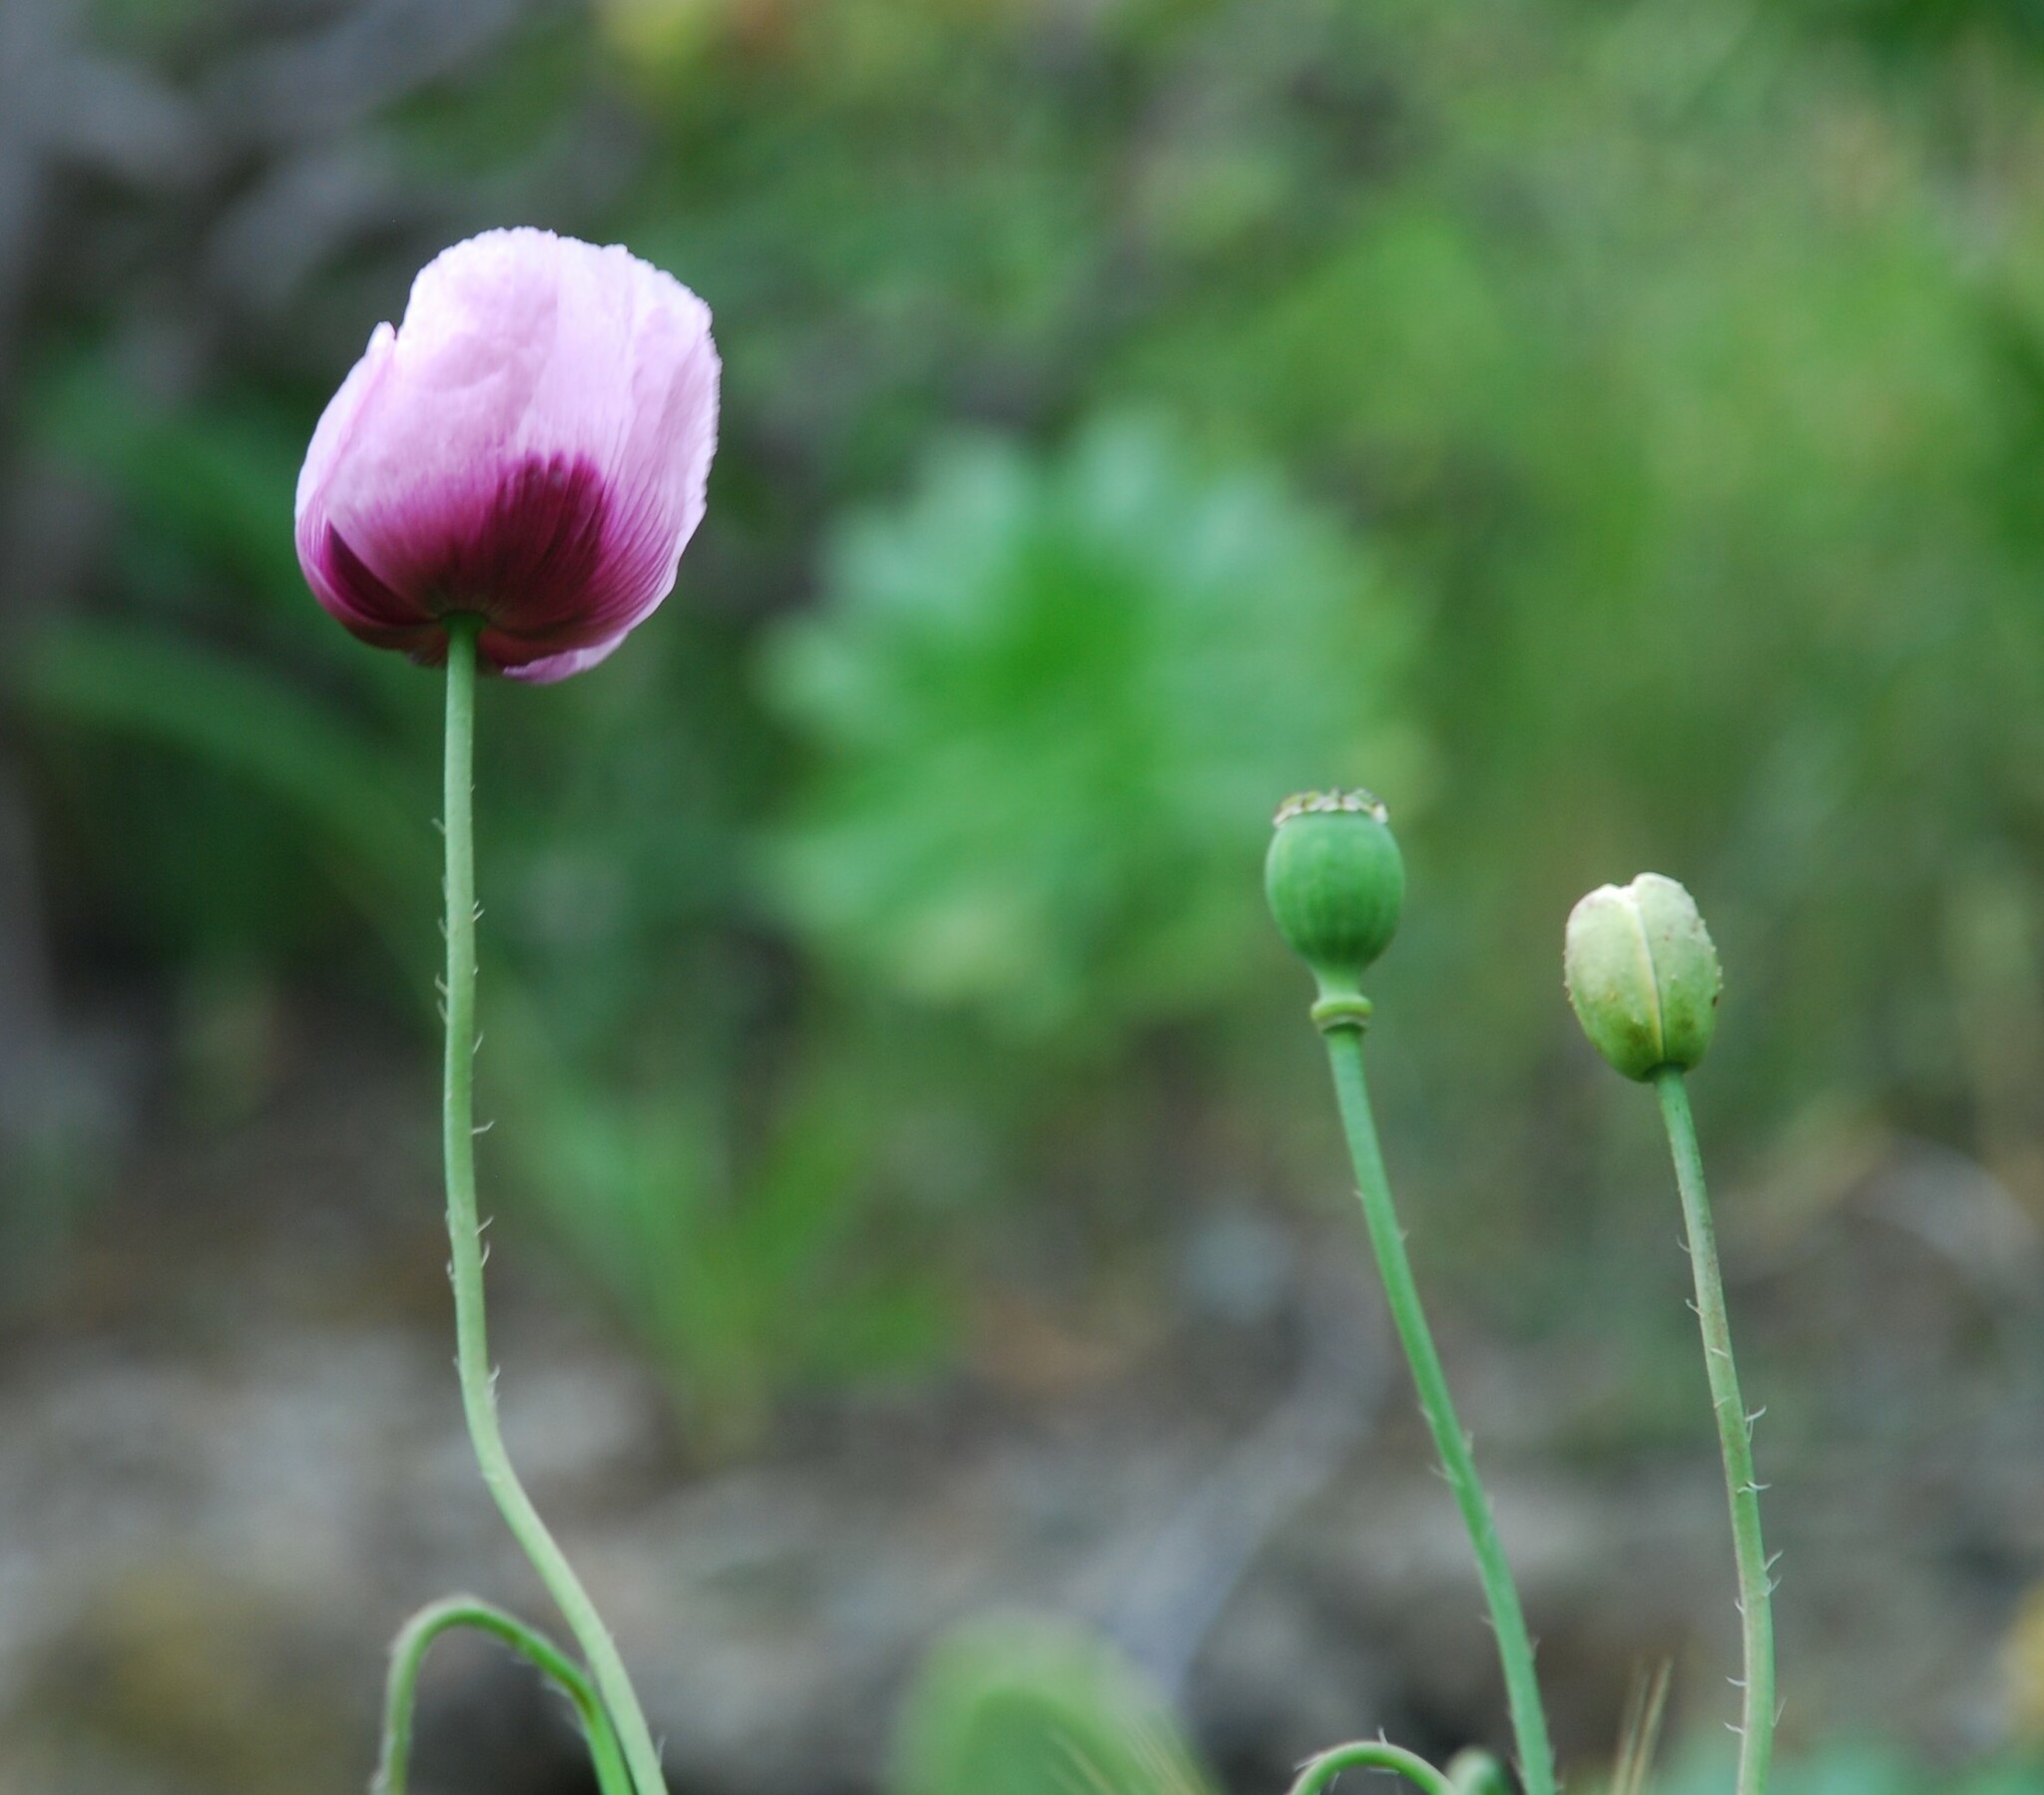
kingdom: Plantae
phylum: Tracheophyta
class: Magnoliopsida
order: Ranunculales
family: Papaveraceae
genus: Papaver
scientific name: Papaver somniferum
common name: Opium poppy
